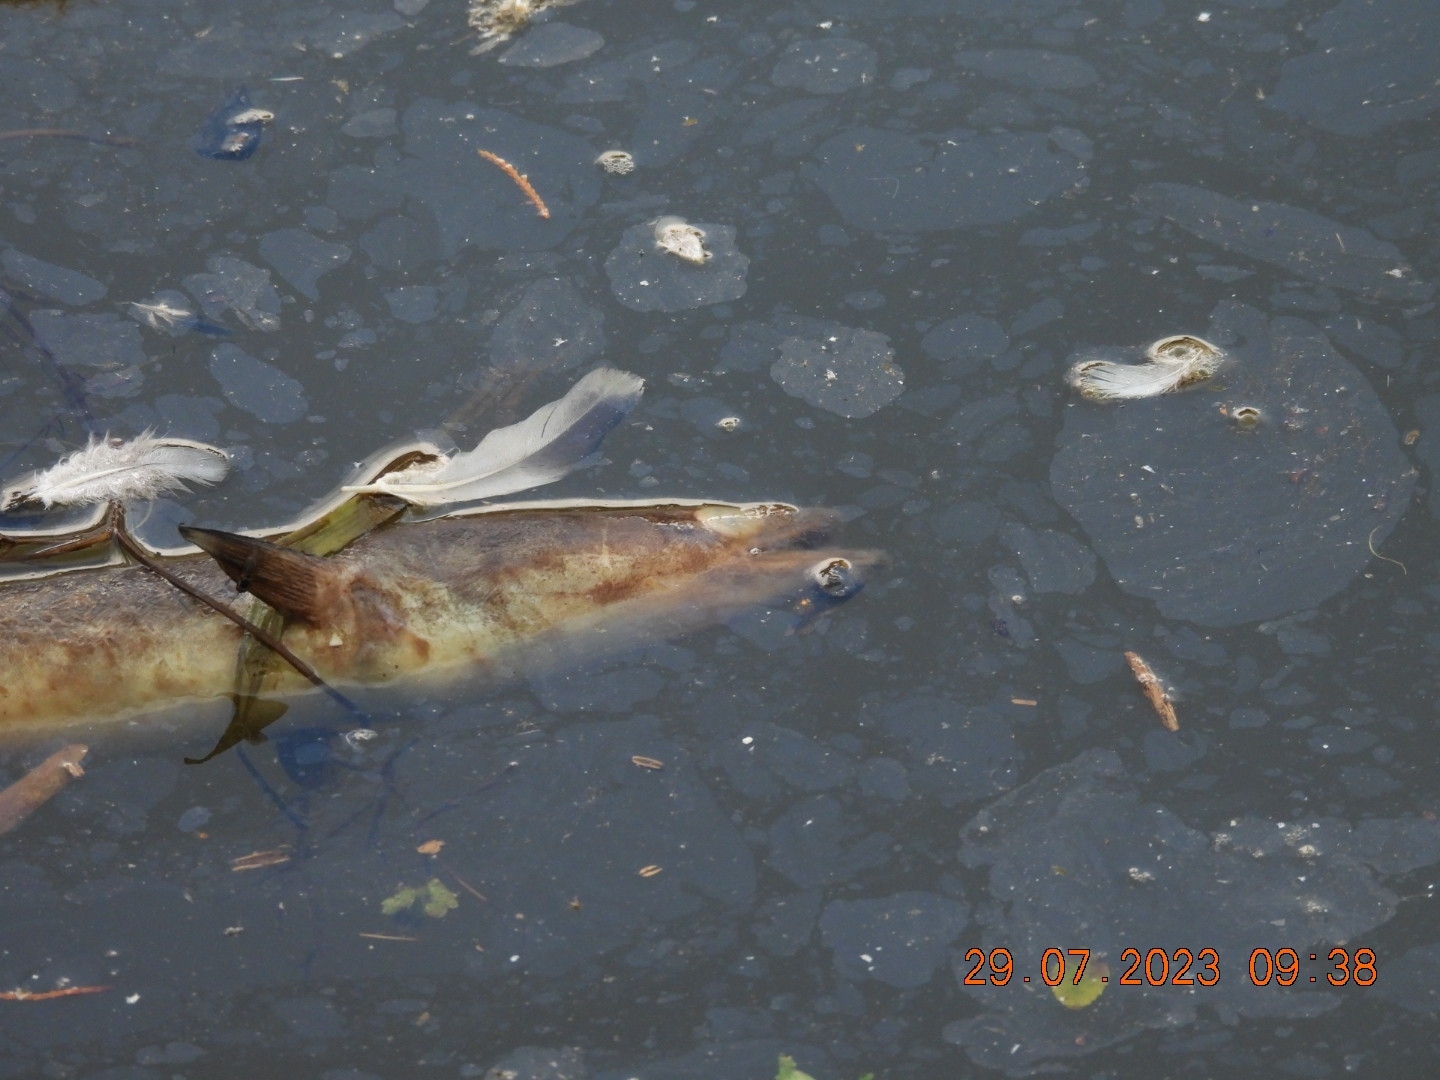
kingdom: Animalia
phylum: Chordata
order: Anguilliformes
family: Anguillidae
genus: Anguilla
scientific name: Anguilla anguilla
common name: European eel
